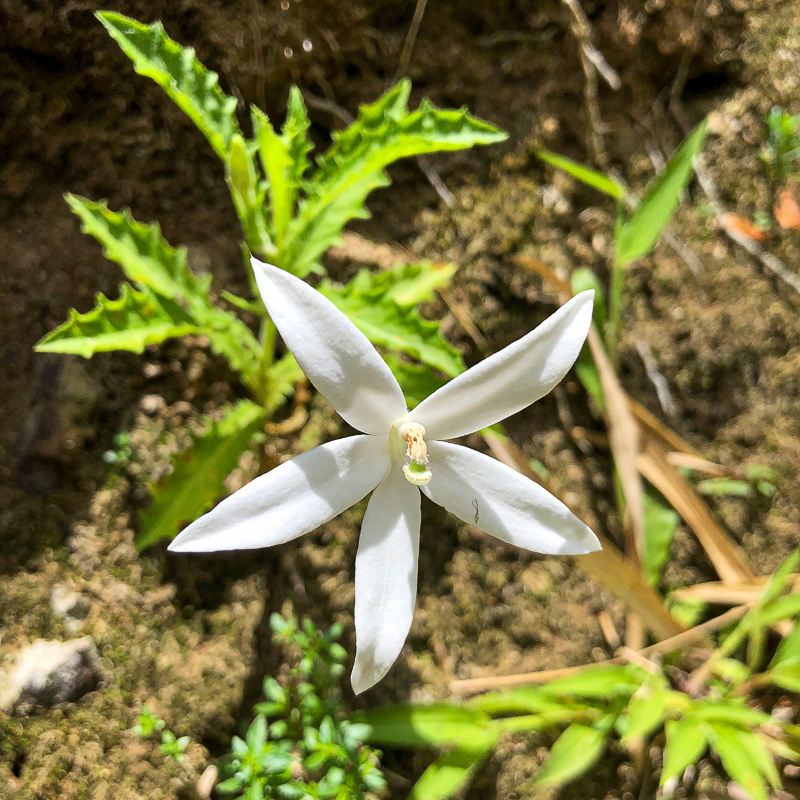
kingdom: Plantae
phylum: Tracheophyta
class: Magnoliopsida
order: Asterales
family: Campanulaceae
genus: Hippobroma
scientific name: Hippobroma longiflora
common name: Madamfate
